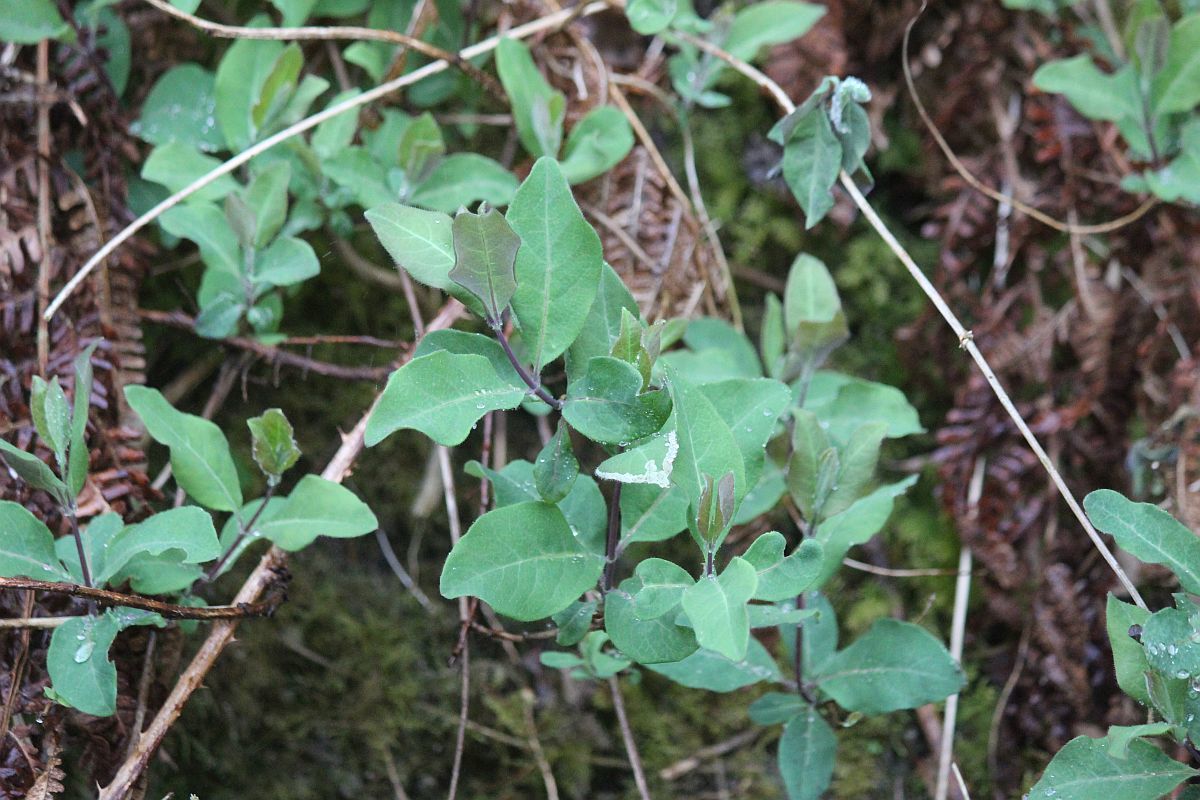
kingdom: Plantae
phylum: Tracheophyta
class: Magnoliopsida
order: Dipsacales
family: Caprifoliaceae
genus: Lonicera
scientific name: Lonicera periclymenum
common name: European honeysuckle
